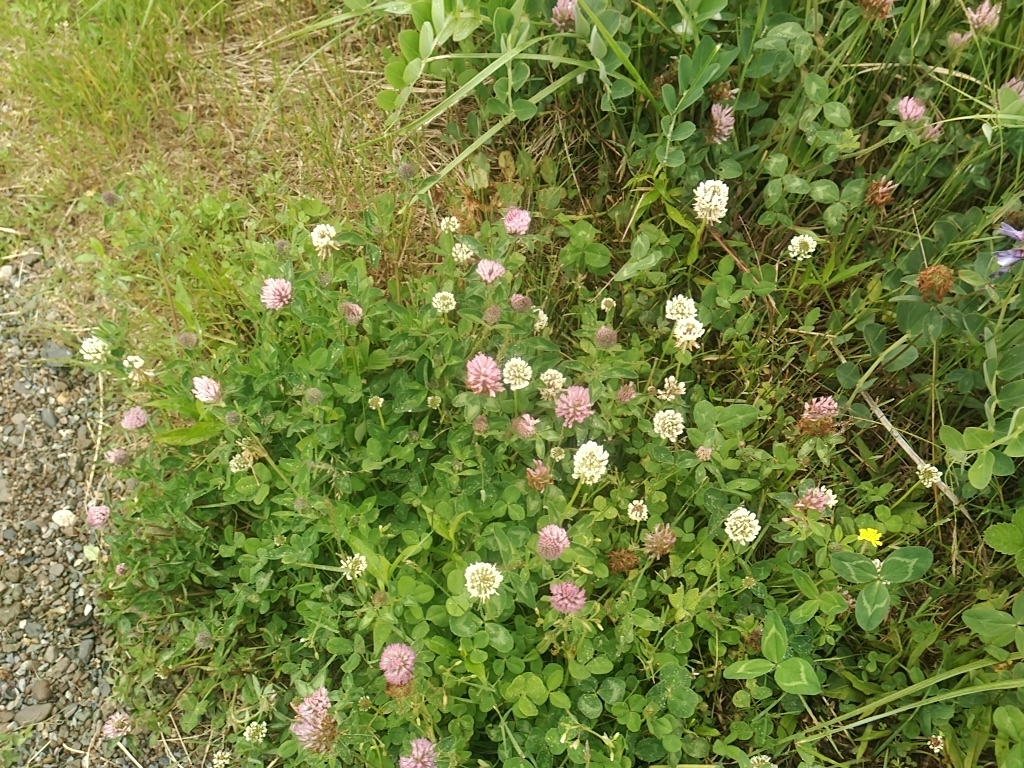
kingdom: Plantae
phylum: Tracheophyta
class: Magnoliopsida
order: Fabales
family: Fabaceae
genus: Trifolium
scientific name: Trifolium repens
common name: White clover
